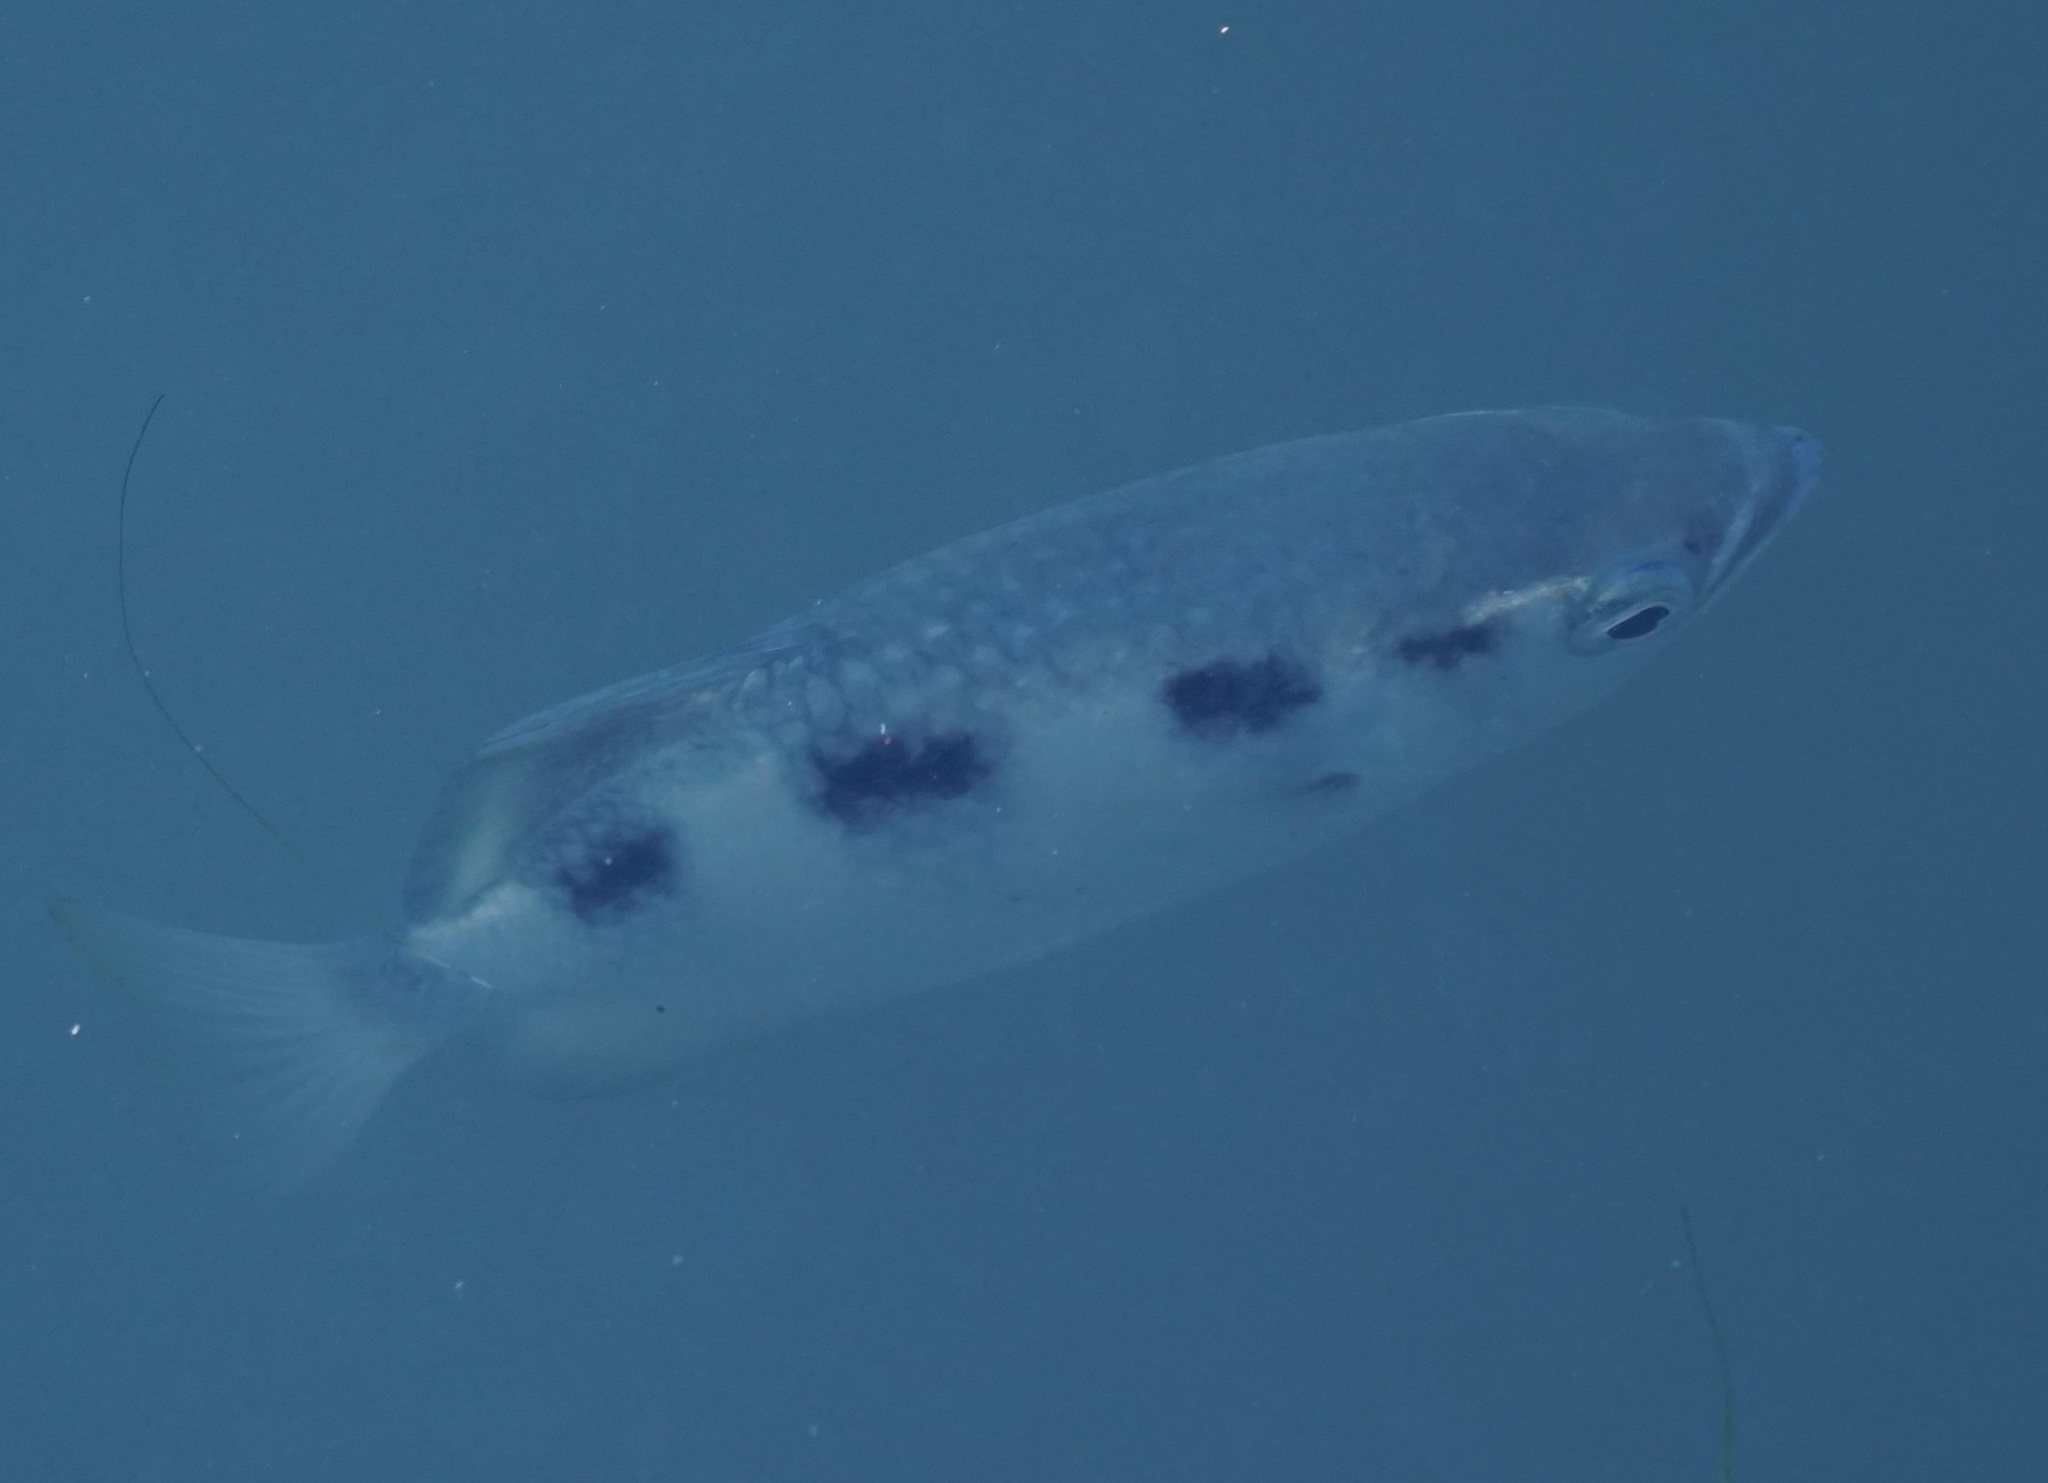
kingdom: Animalia
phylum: Chordata
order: Perciformes
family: Toxotidae
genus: Toxotes
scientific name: Toxotes chatareus
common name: Spotted archerfish
